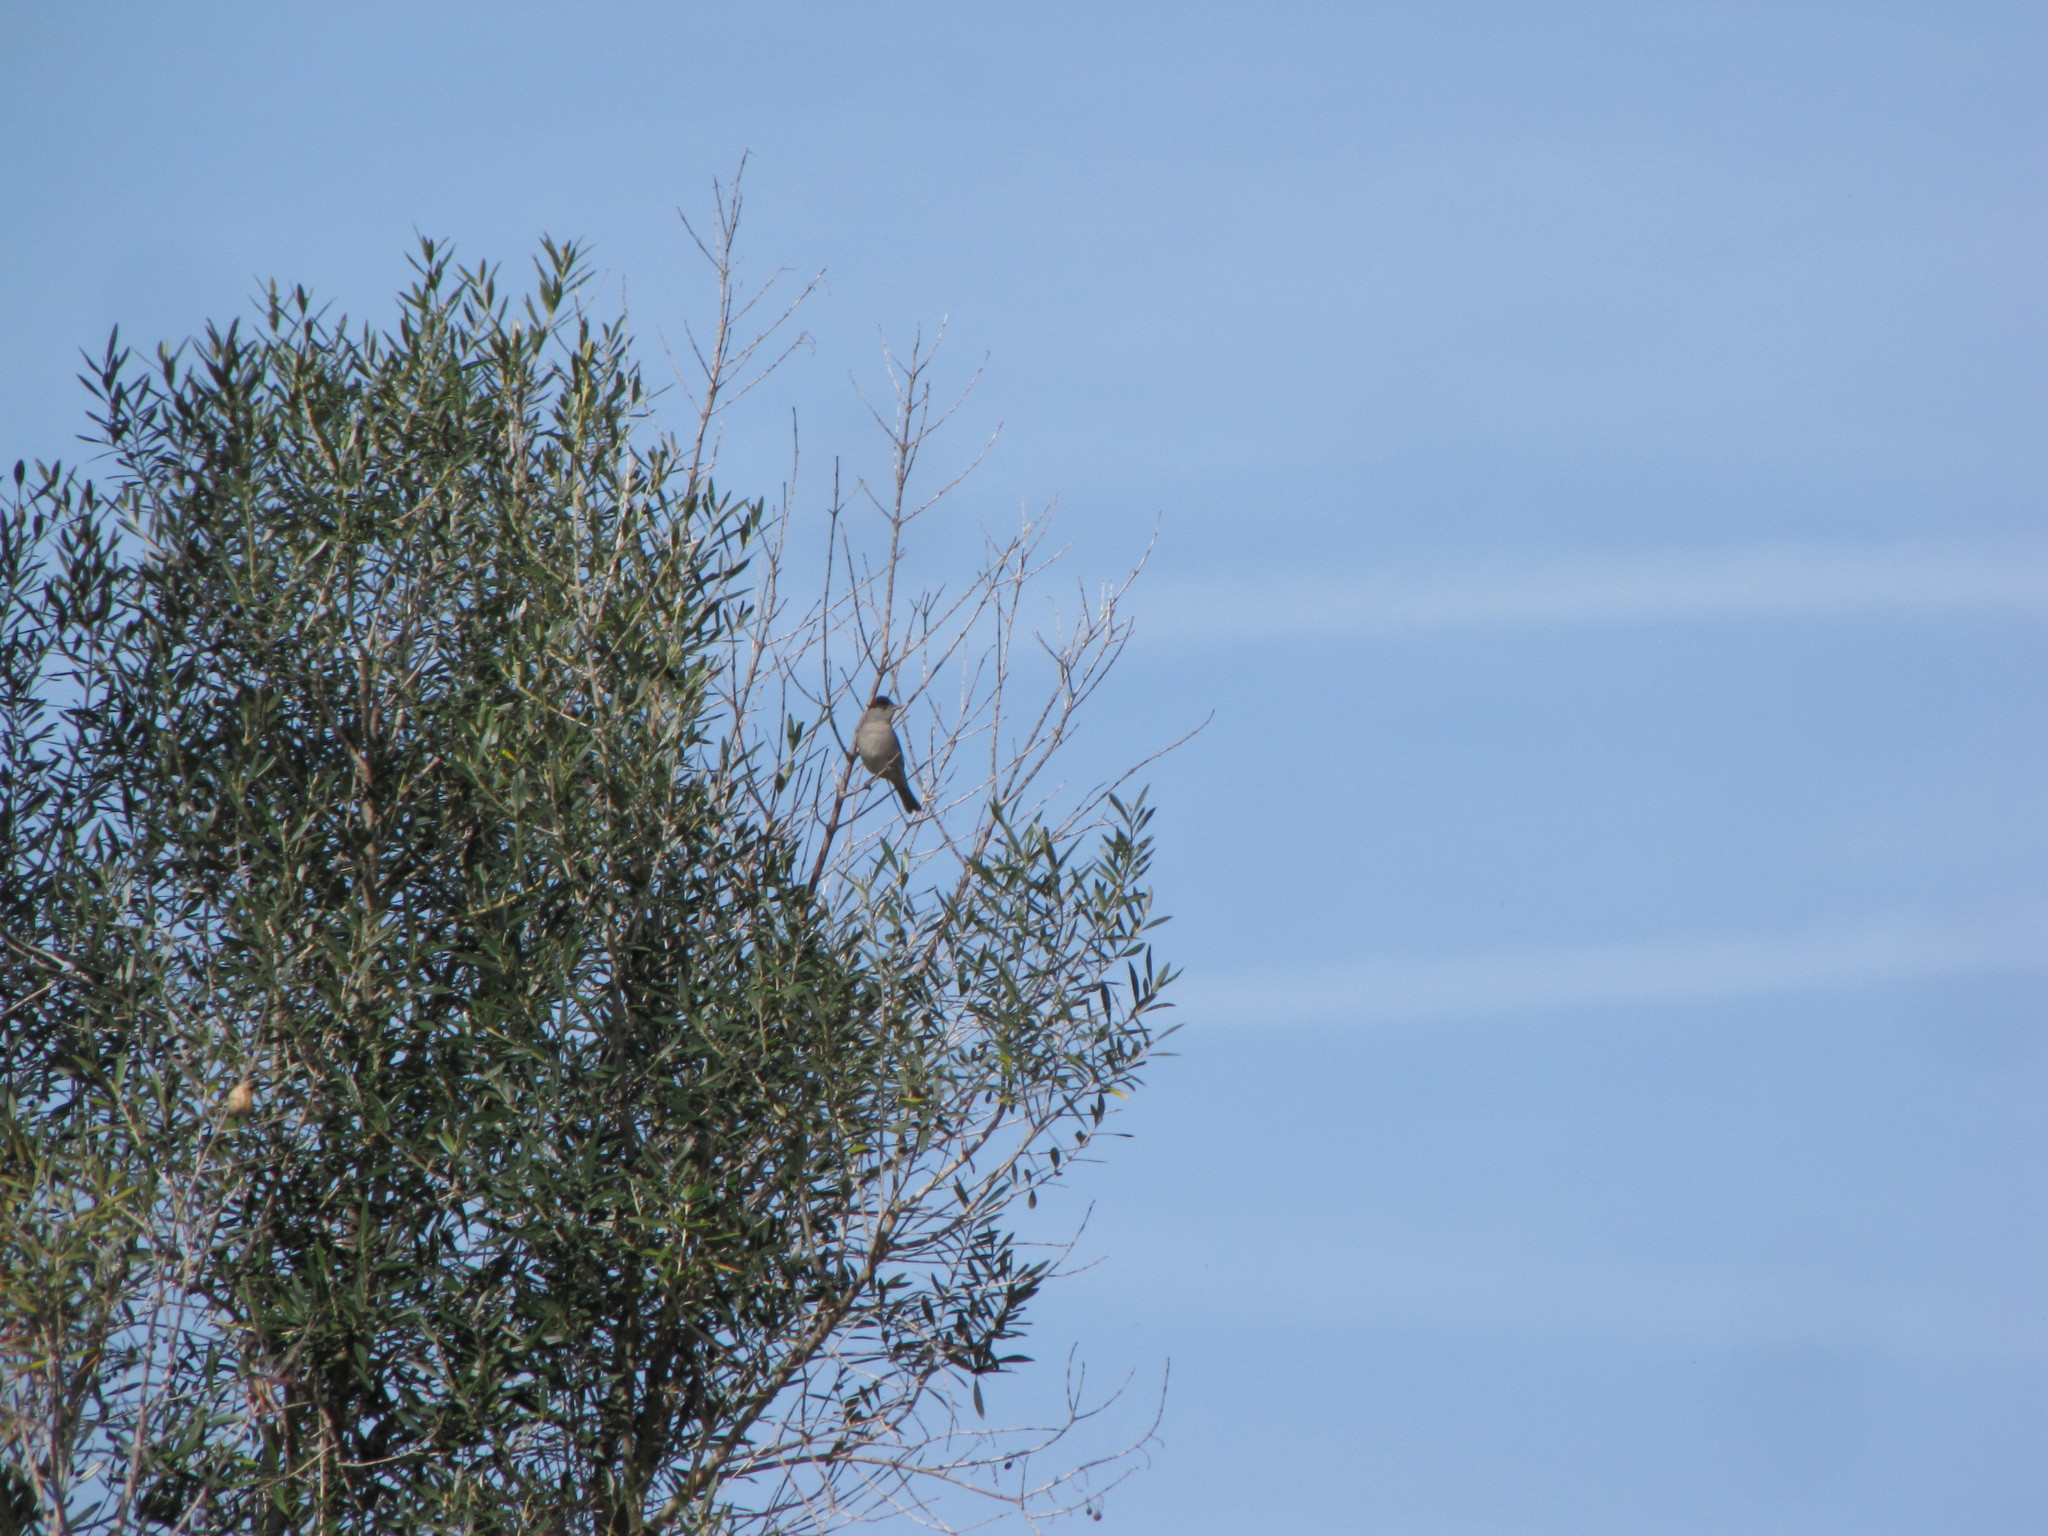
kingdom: Animalia
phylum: Chordata
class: Aves
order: Passeriformes
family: Sylviidae
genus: Sylvia
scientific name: Sylvia atricapilla
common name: Eurasian blackcap
